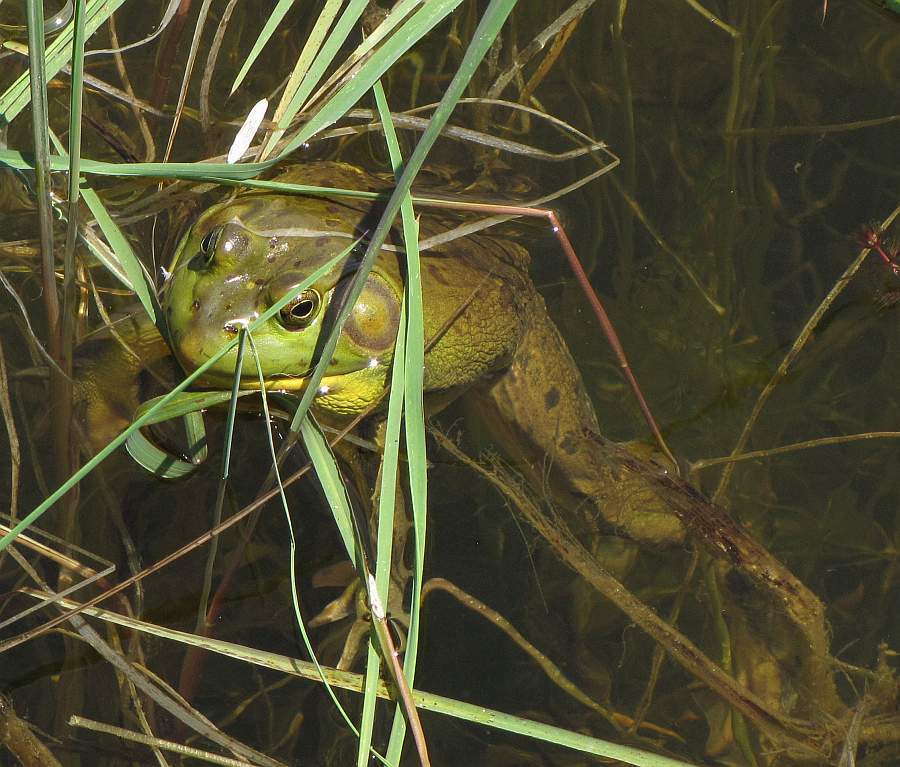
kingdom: Animalia
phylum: Chordata
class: Amphibia
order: Anura
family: Ranidae
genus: Lithobates
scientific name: Lithobates catesbeianus
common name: American bullfrog
